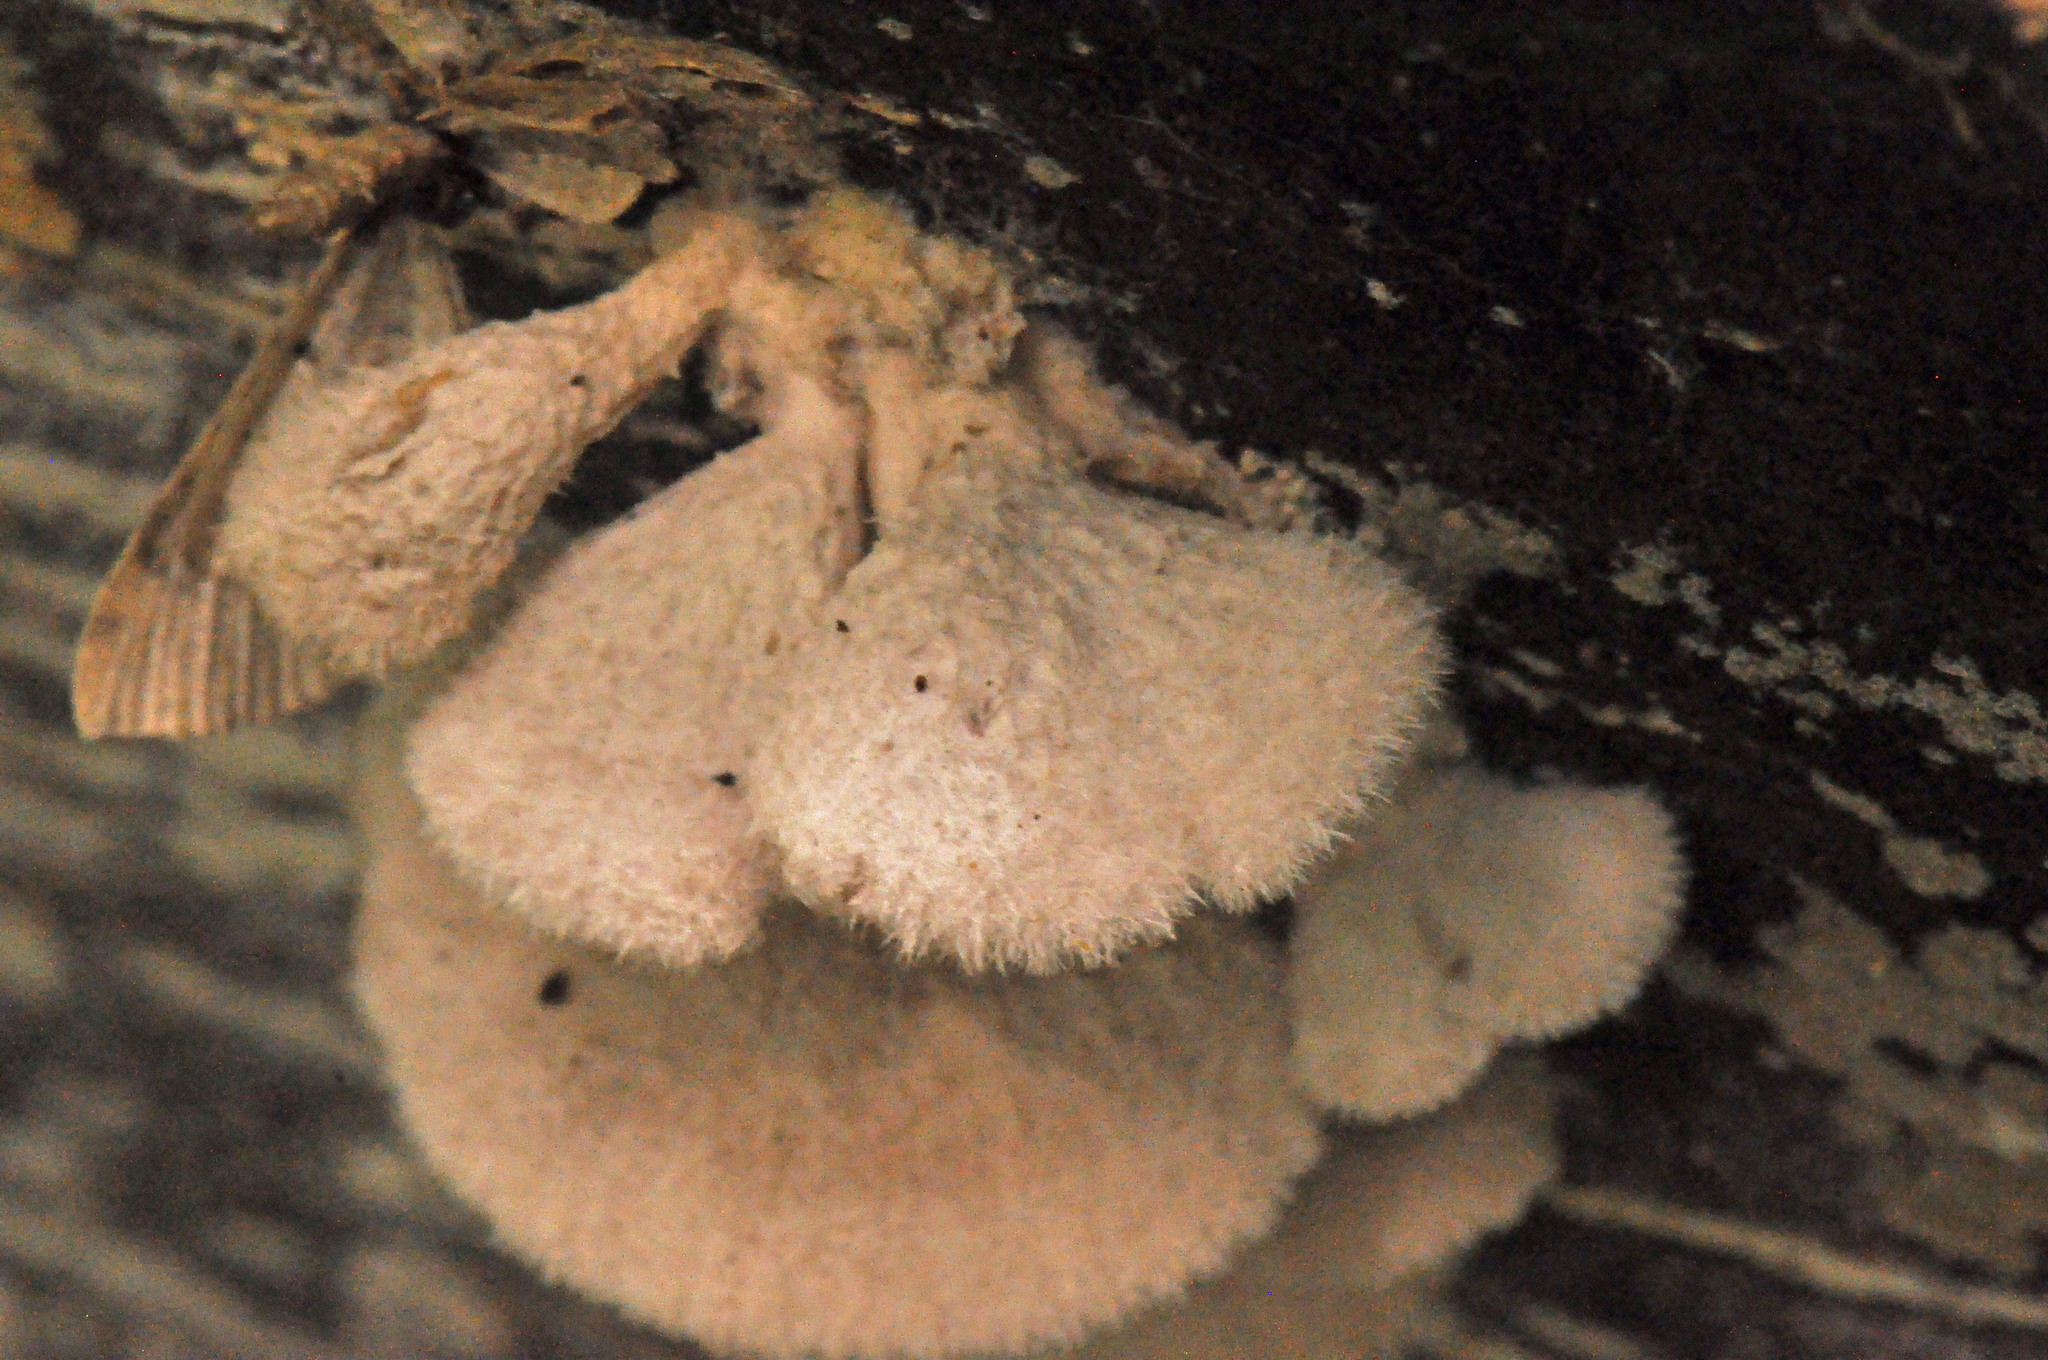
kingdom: Fungi
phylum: Basidiomycota
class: Agaricomycetes
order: Agaricales
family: Schizophyllaceae
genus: Schizophyllum
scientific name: Schizophyllum commune
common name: Common porecrust
